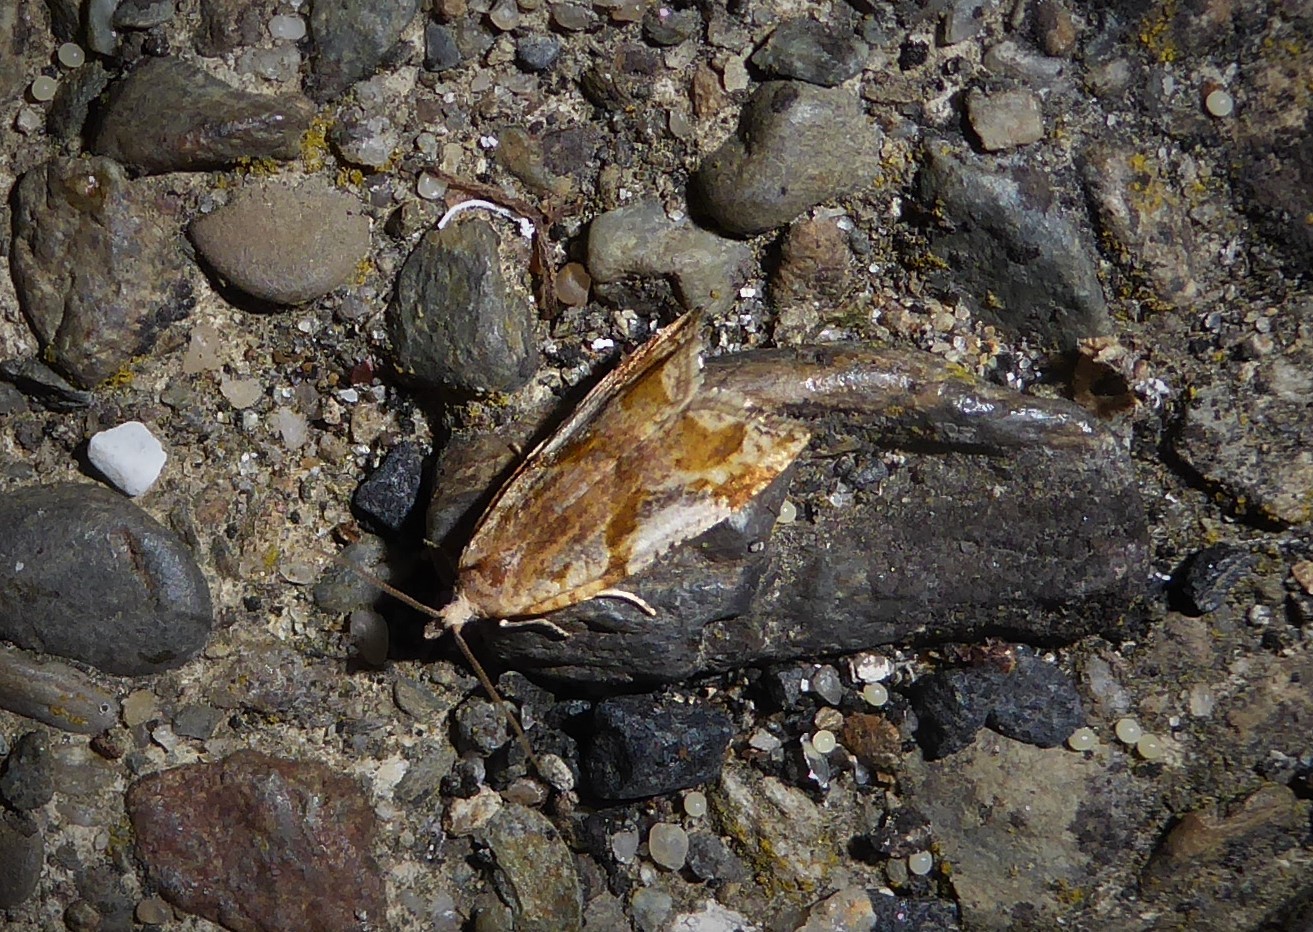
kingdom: Animalia
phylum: Arthropoda
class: Insecta
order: Lepidoptera
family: Tortricidae
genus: Pyrgotis
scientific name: Pyrgotis plagiatana
